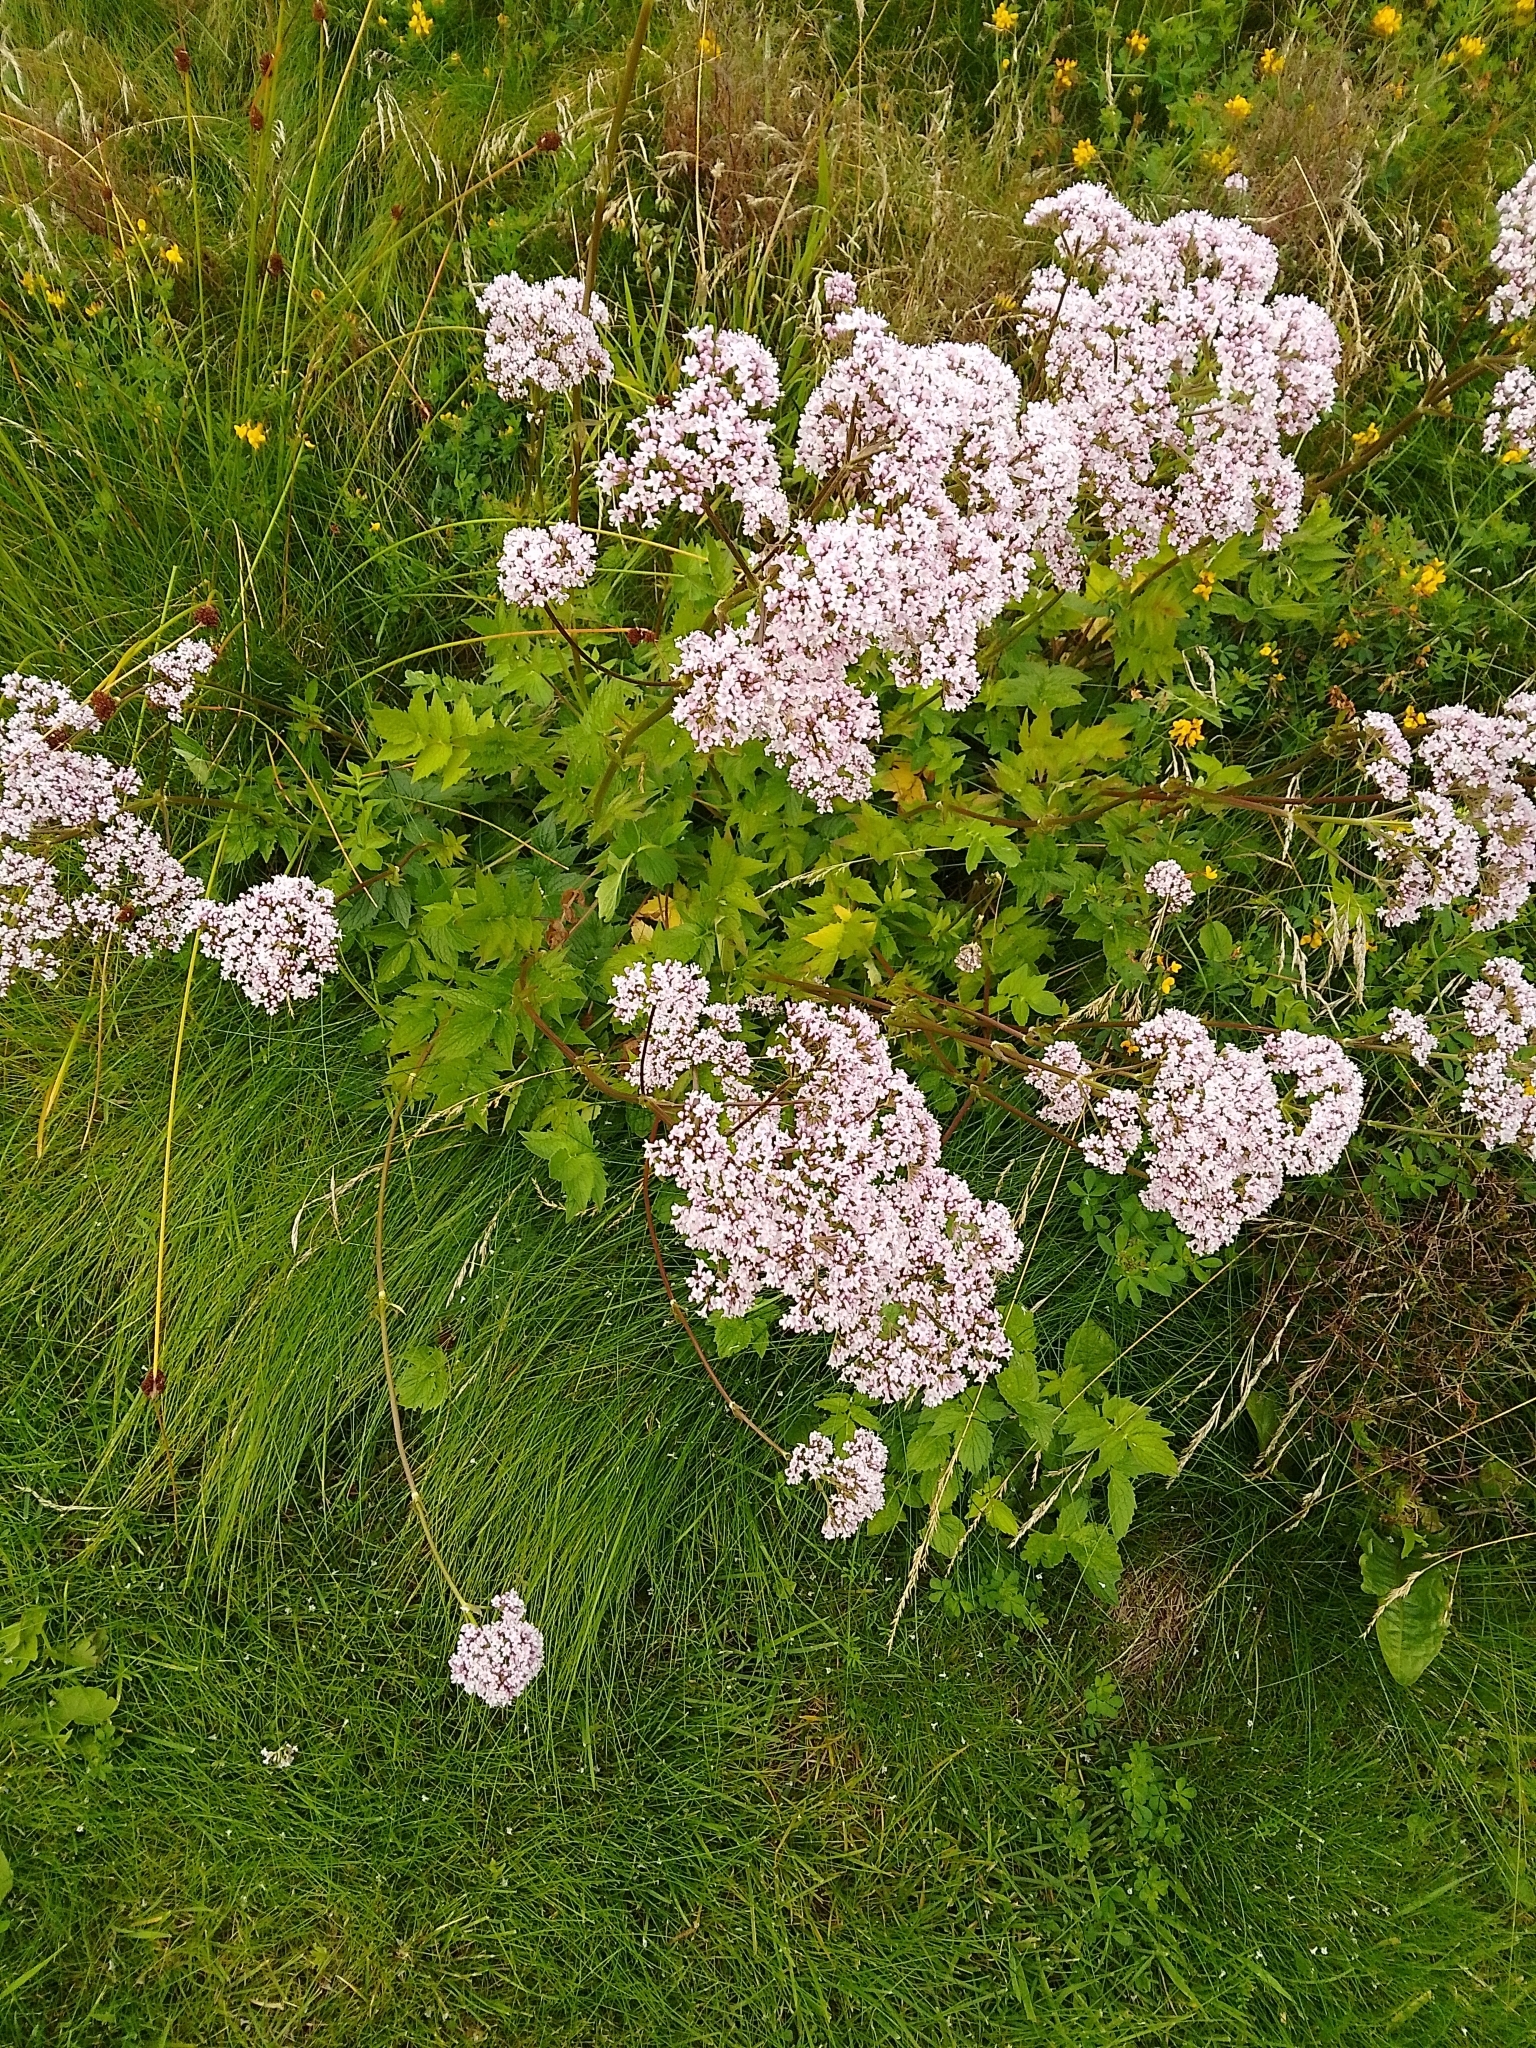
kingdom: Plantae
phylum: Tracheophyta
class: Magnoliopsida
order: Dipsacales
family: Caprifoliaceae
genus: Valeriana
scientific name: Valeriana officinalis
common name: Common valerian
